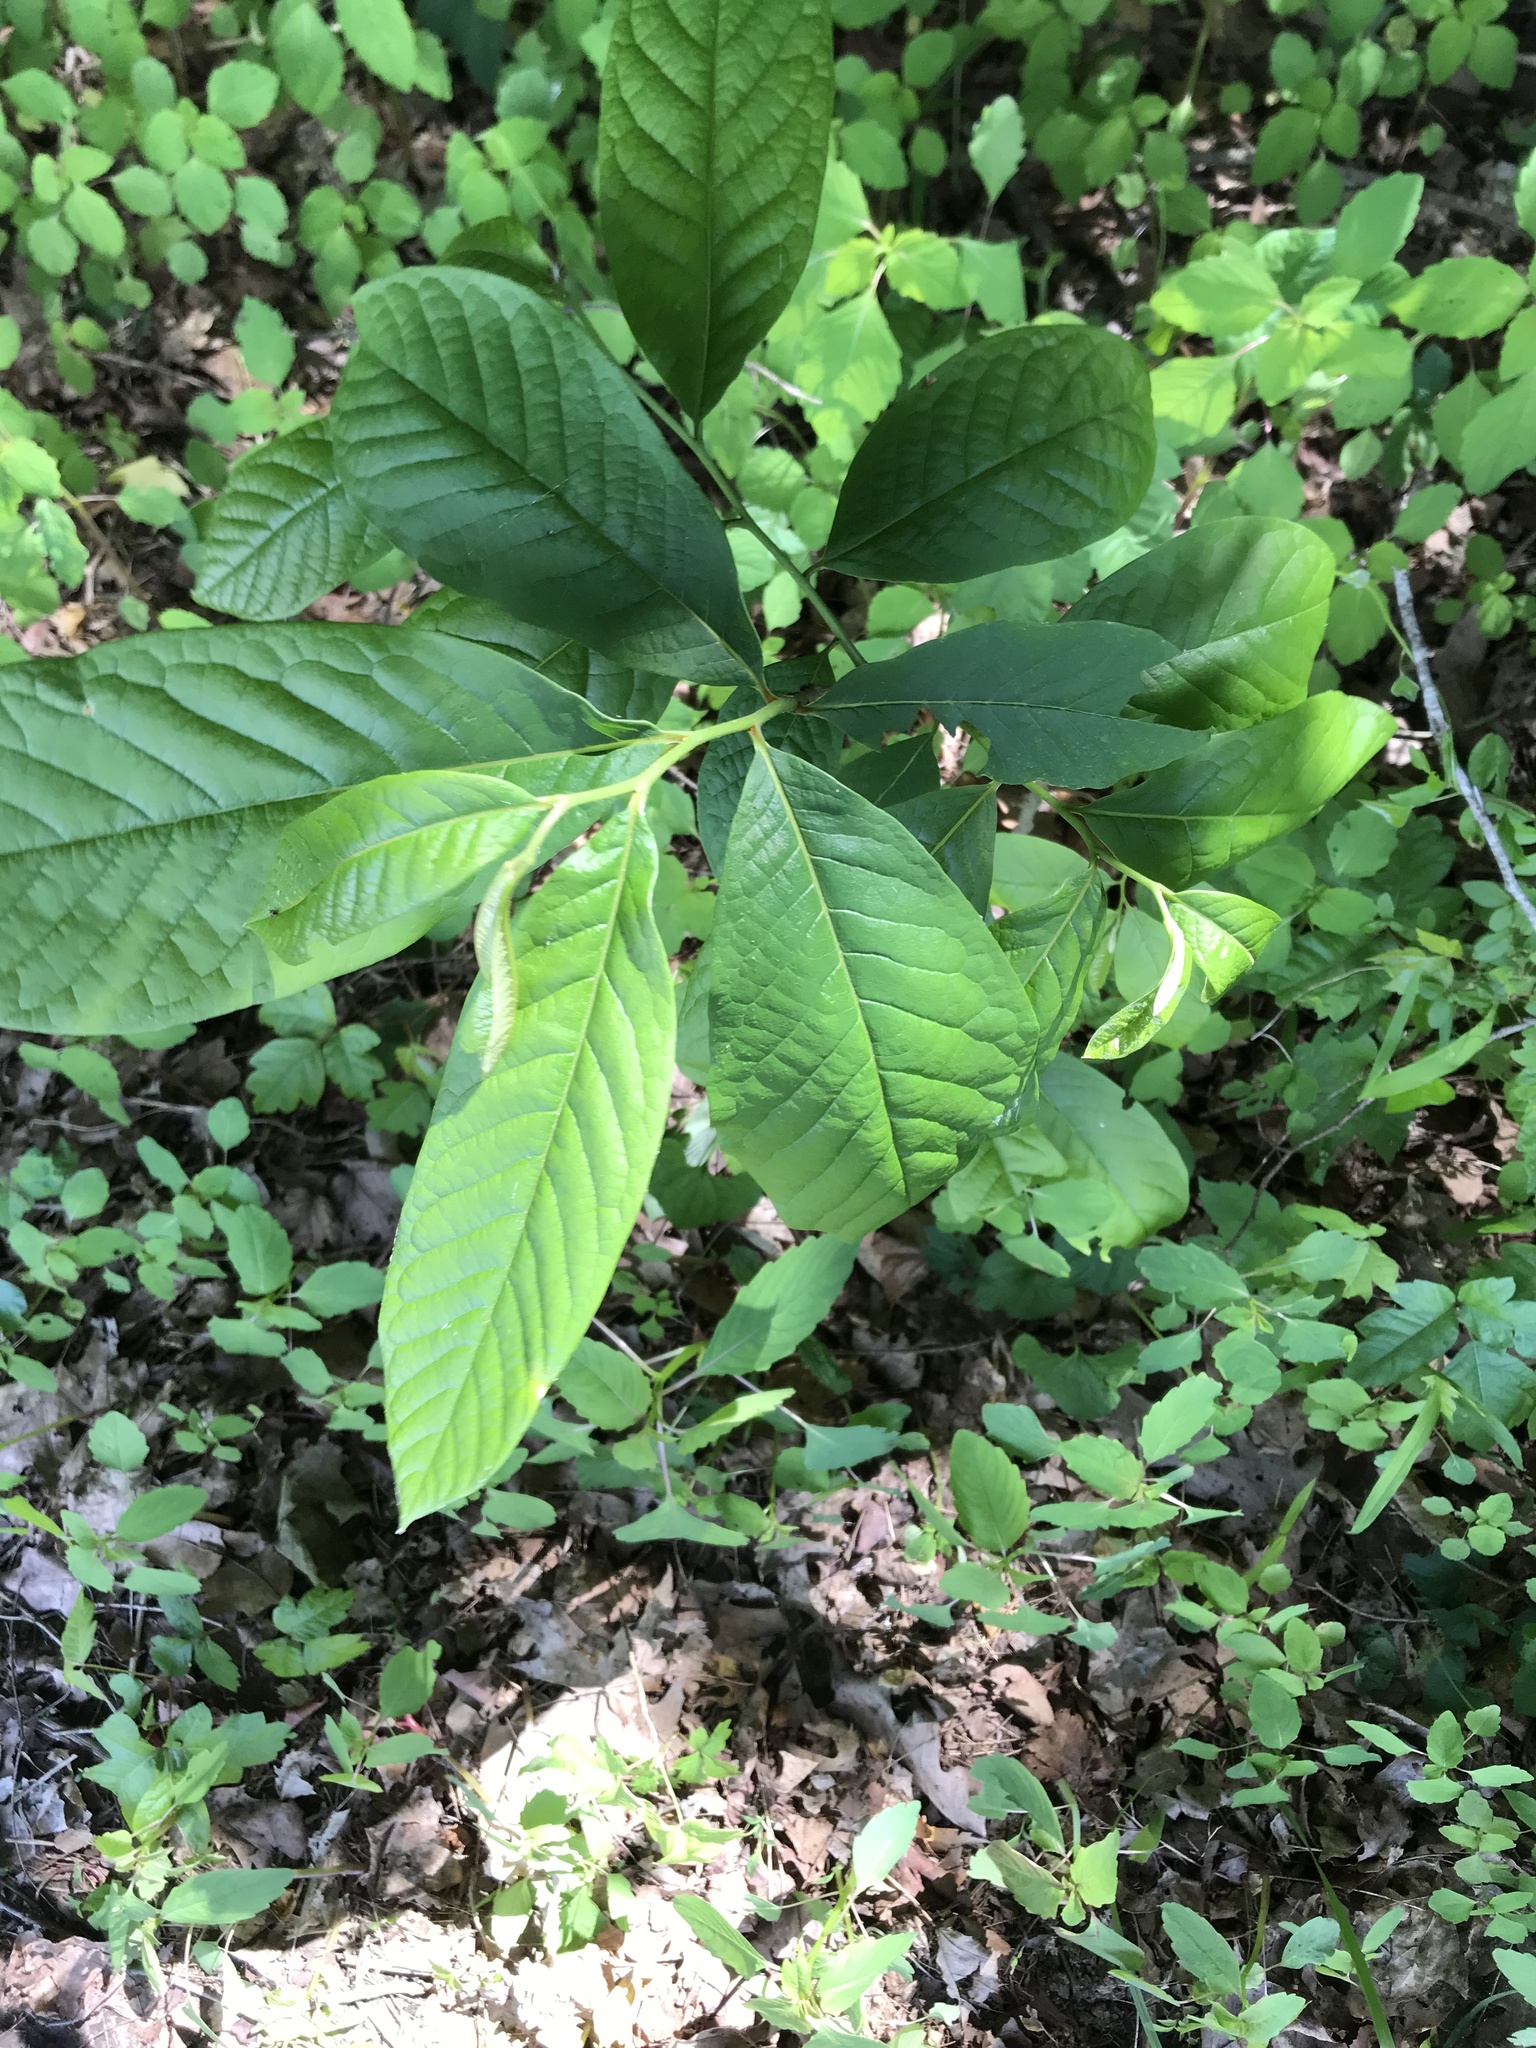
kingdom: Plantae
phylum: Tracheophyta
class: Magnoliopsida
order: Magnoliales
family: Annonaceae
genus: Asimina
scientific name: Asimina triloba
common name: Dog-banana
